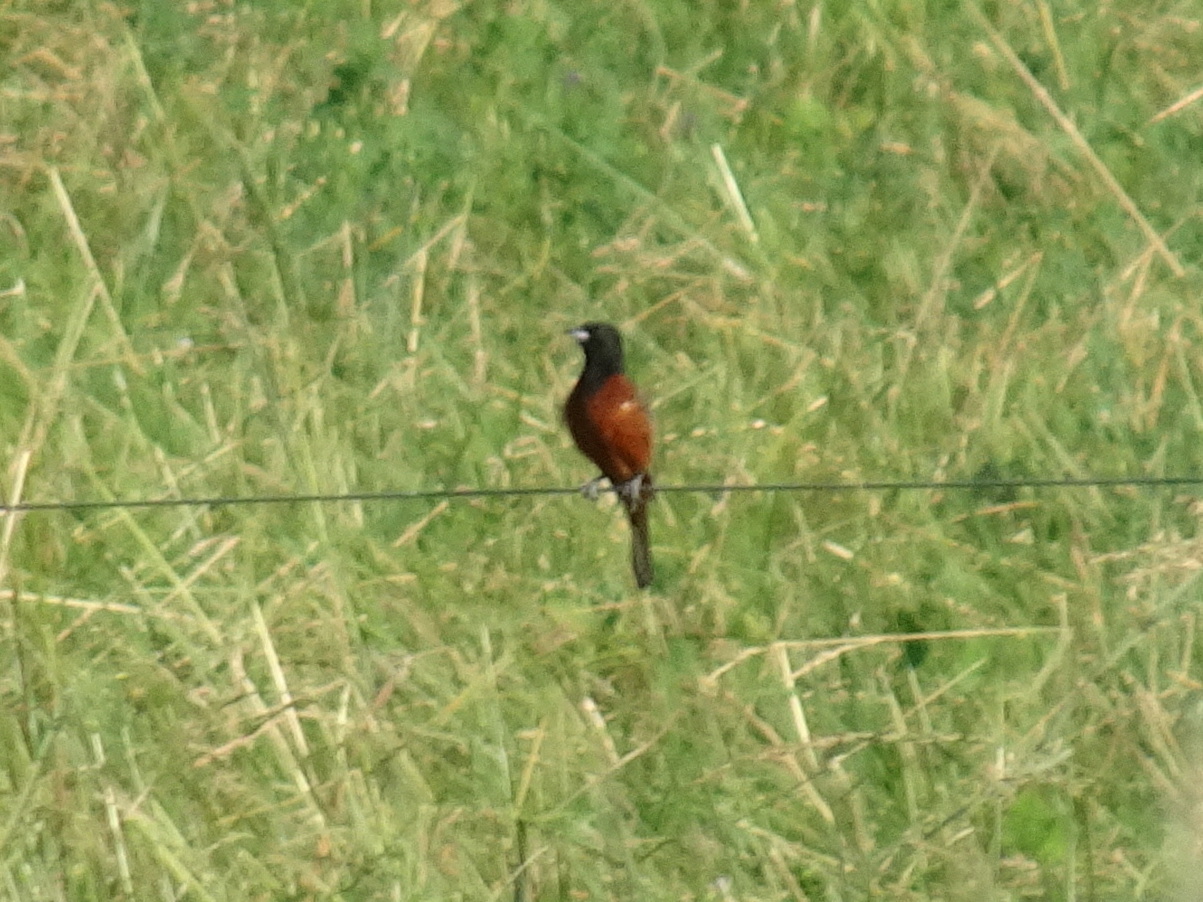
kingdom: Animalia
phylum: Chordata
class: Aves
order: Passeriformes
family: Icteridae
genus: Icterus
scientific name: Icterus spurius
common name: Orchard oriole
